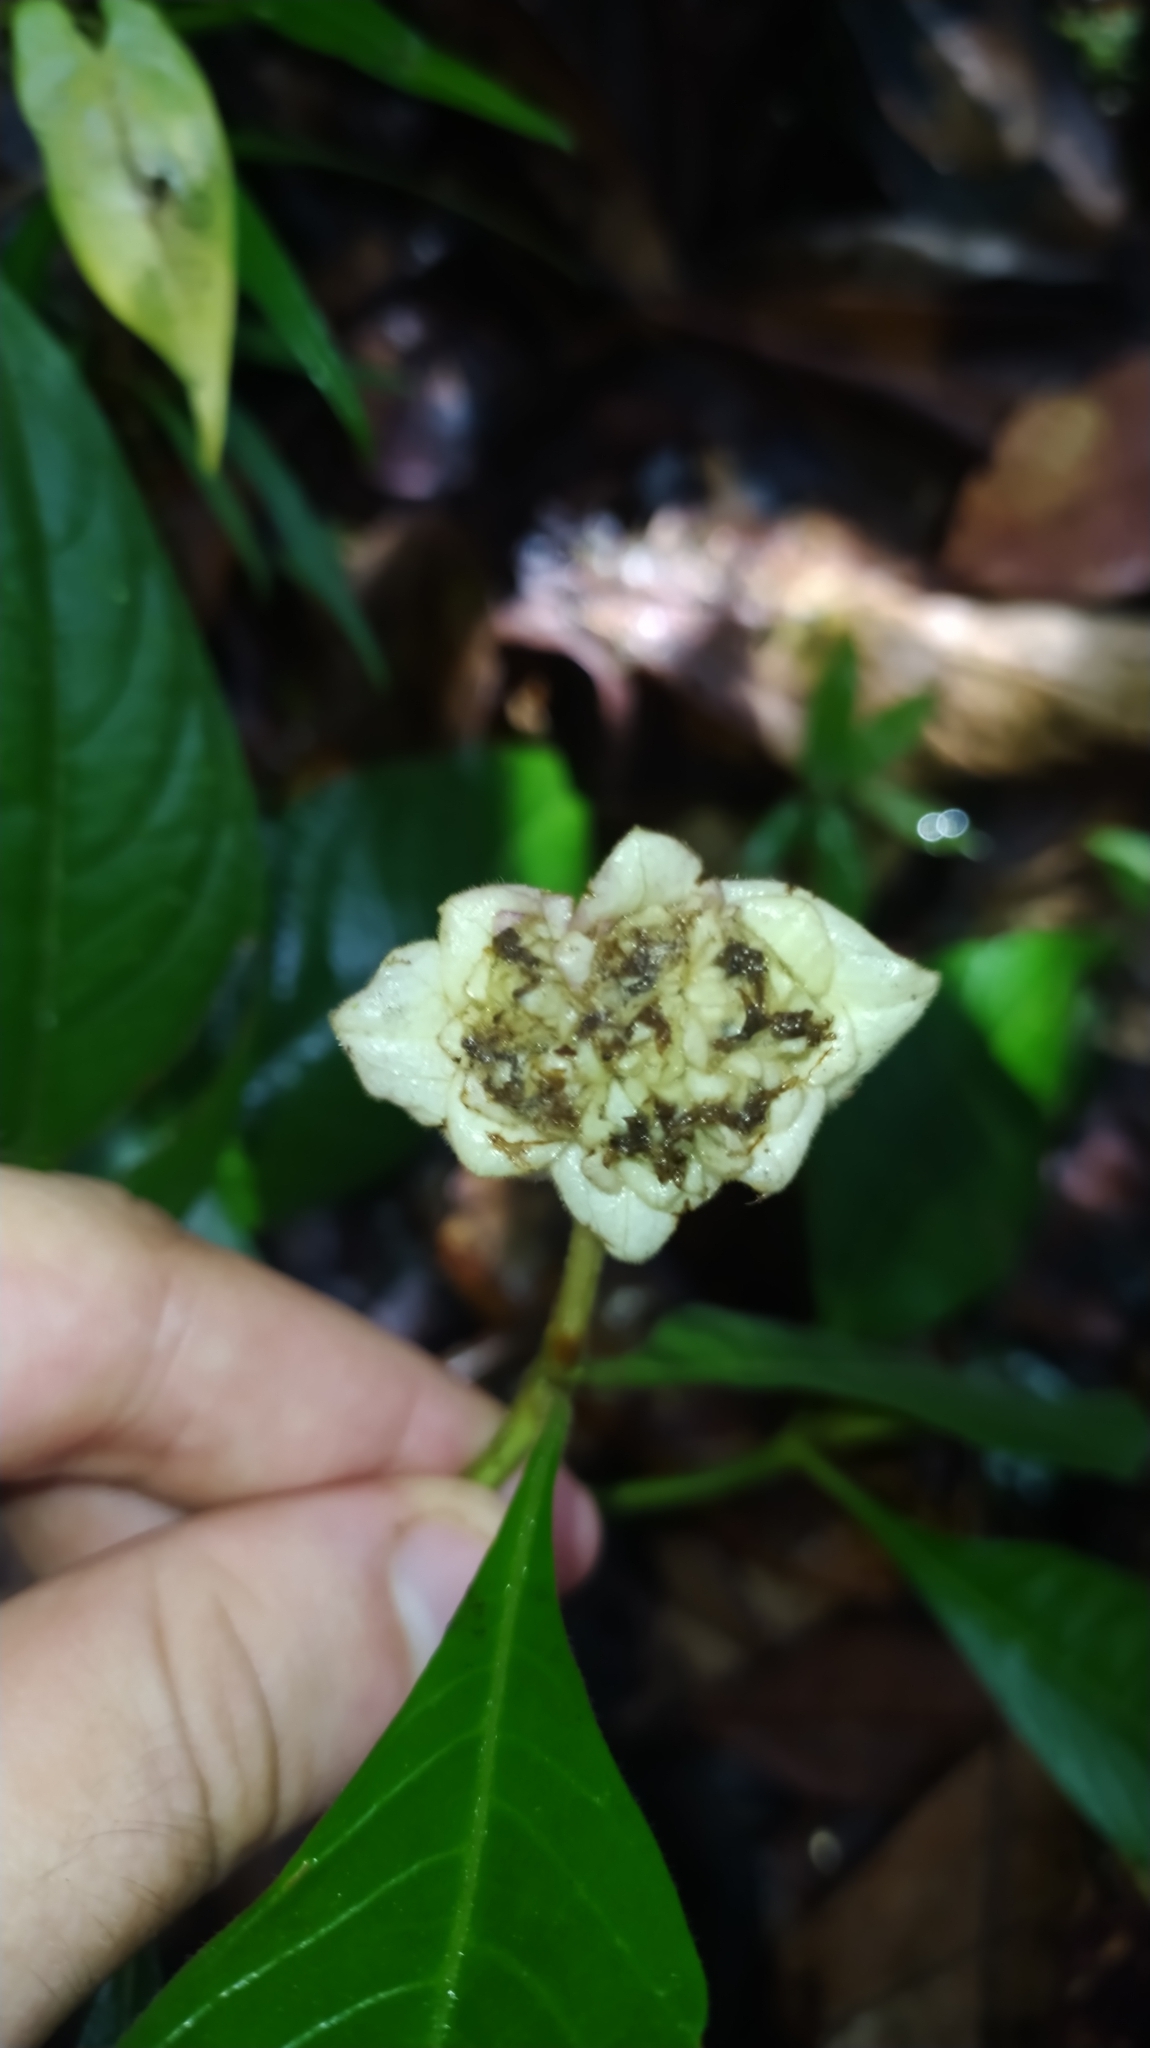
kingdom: Plantae
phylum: Tracheophyta
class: Magnoliopsida
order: Gentianales
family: Rubiaceae
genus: Palicourea
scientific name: Palicourea bracteocardia
